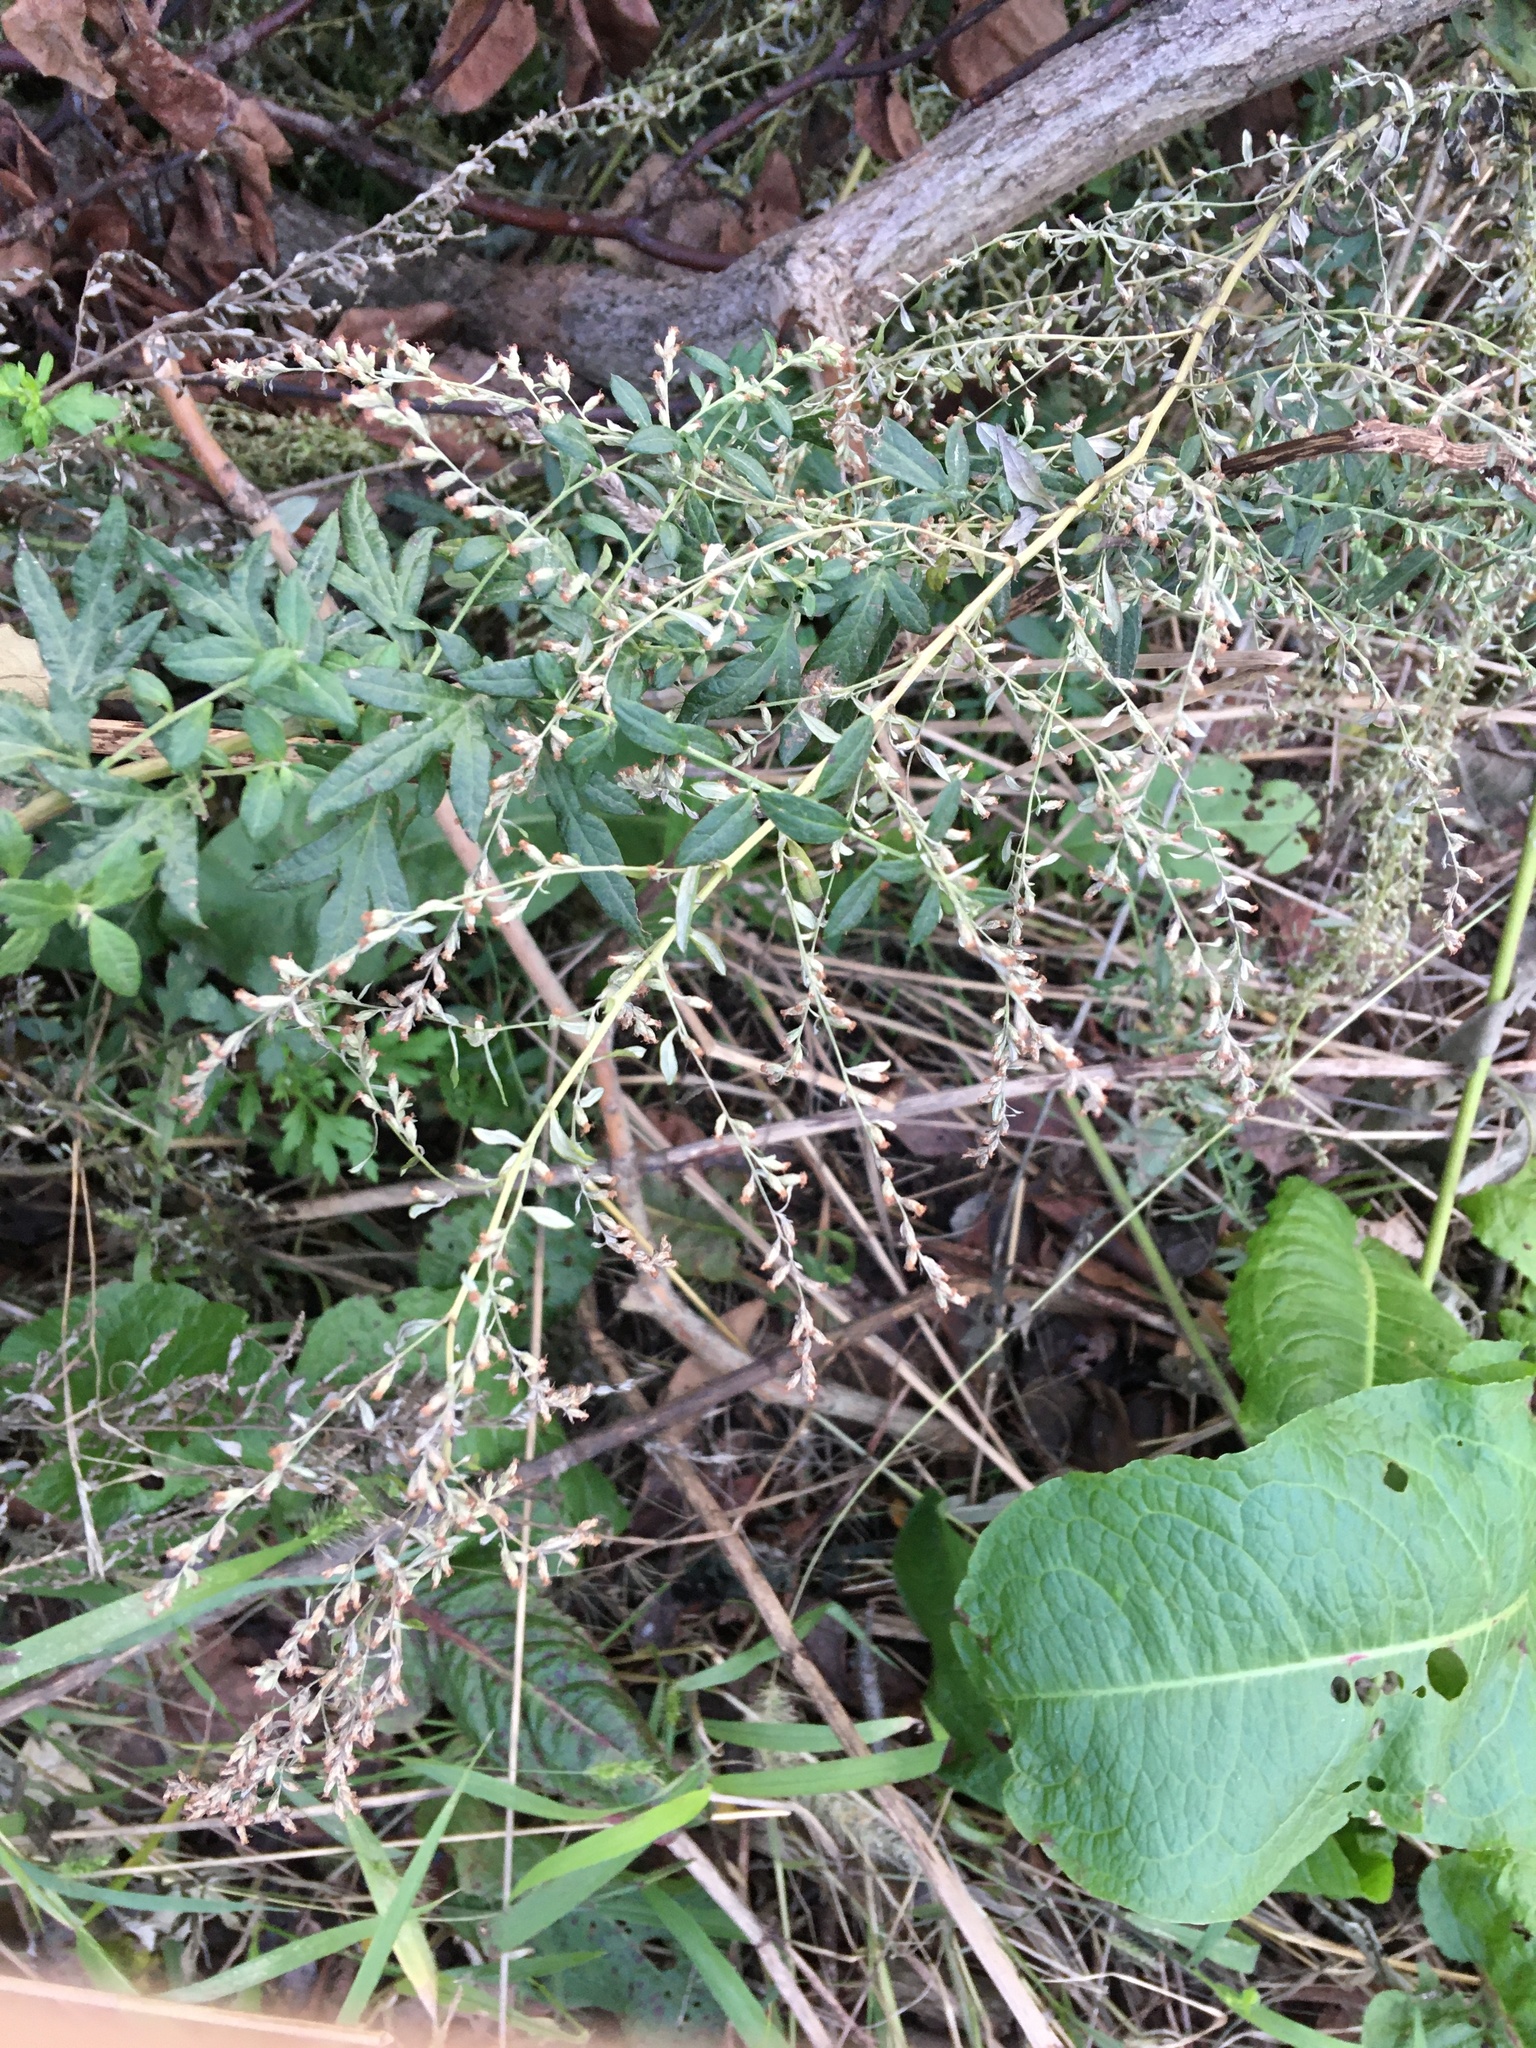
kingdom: Plantae
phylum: Tracheophyta
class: Magnoliopsida
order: Asterales
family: Asteraceae
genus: Artemisia
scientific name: Artemisia vulgaris
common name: Mugwort
